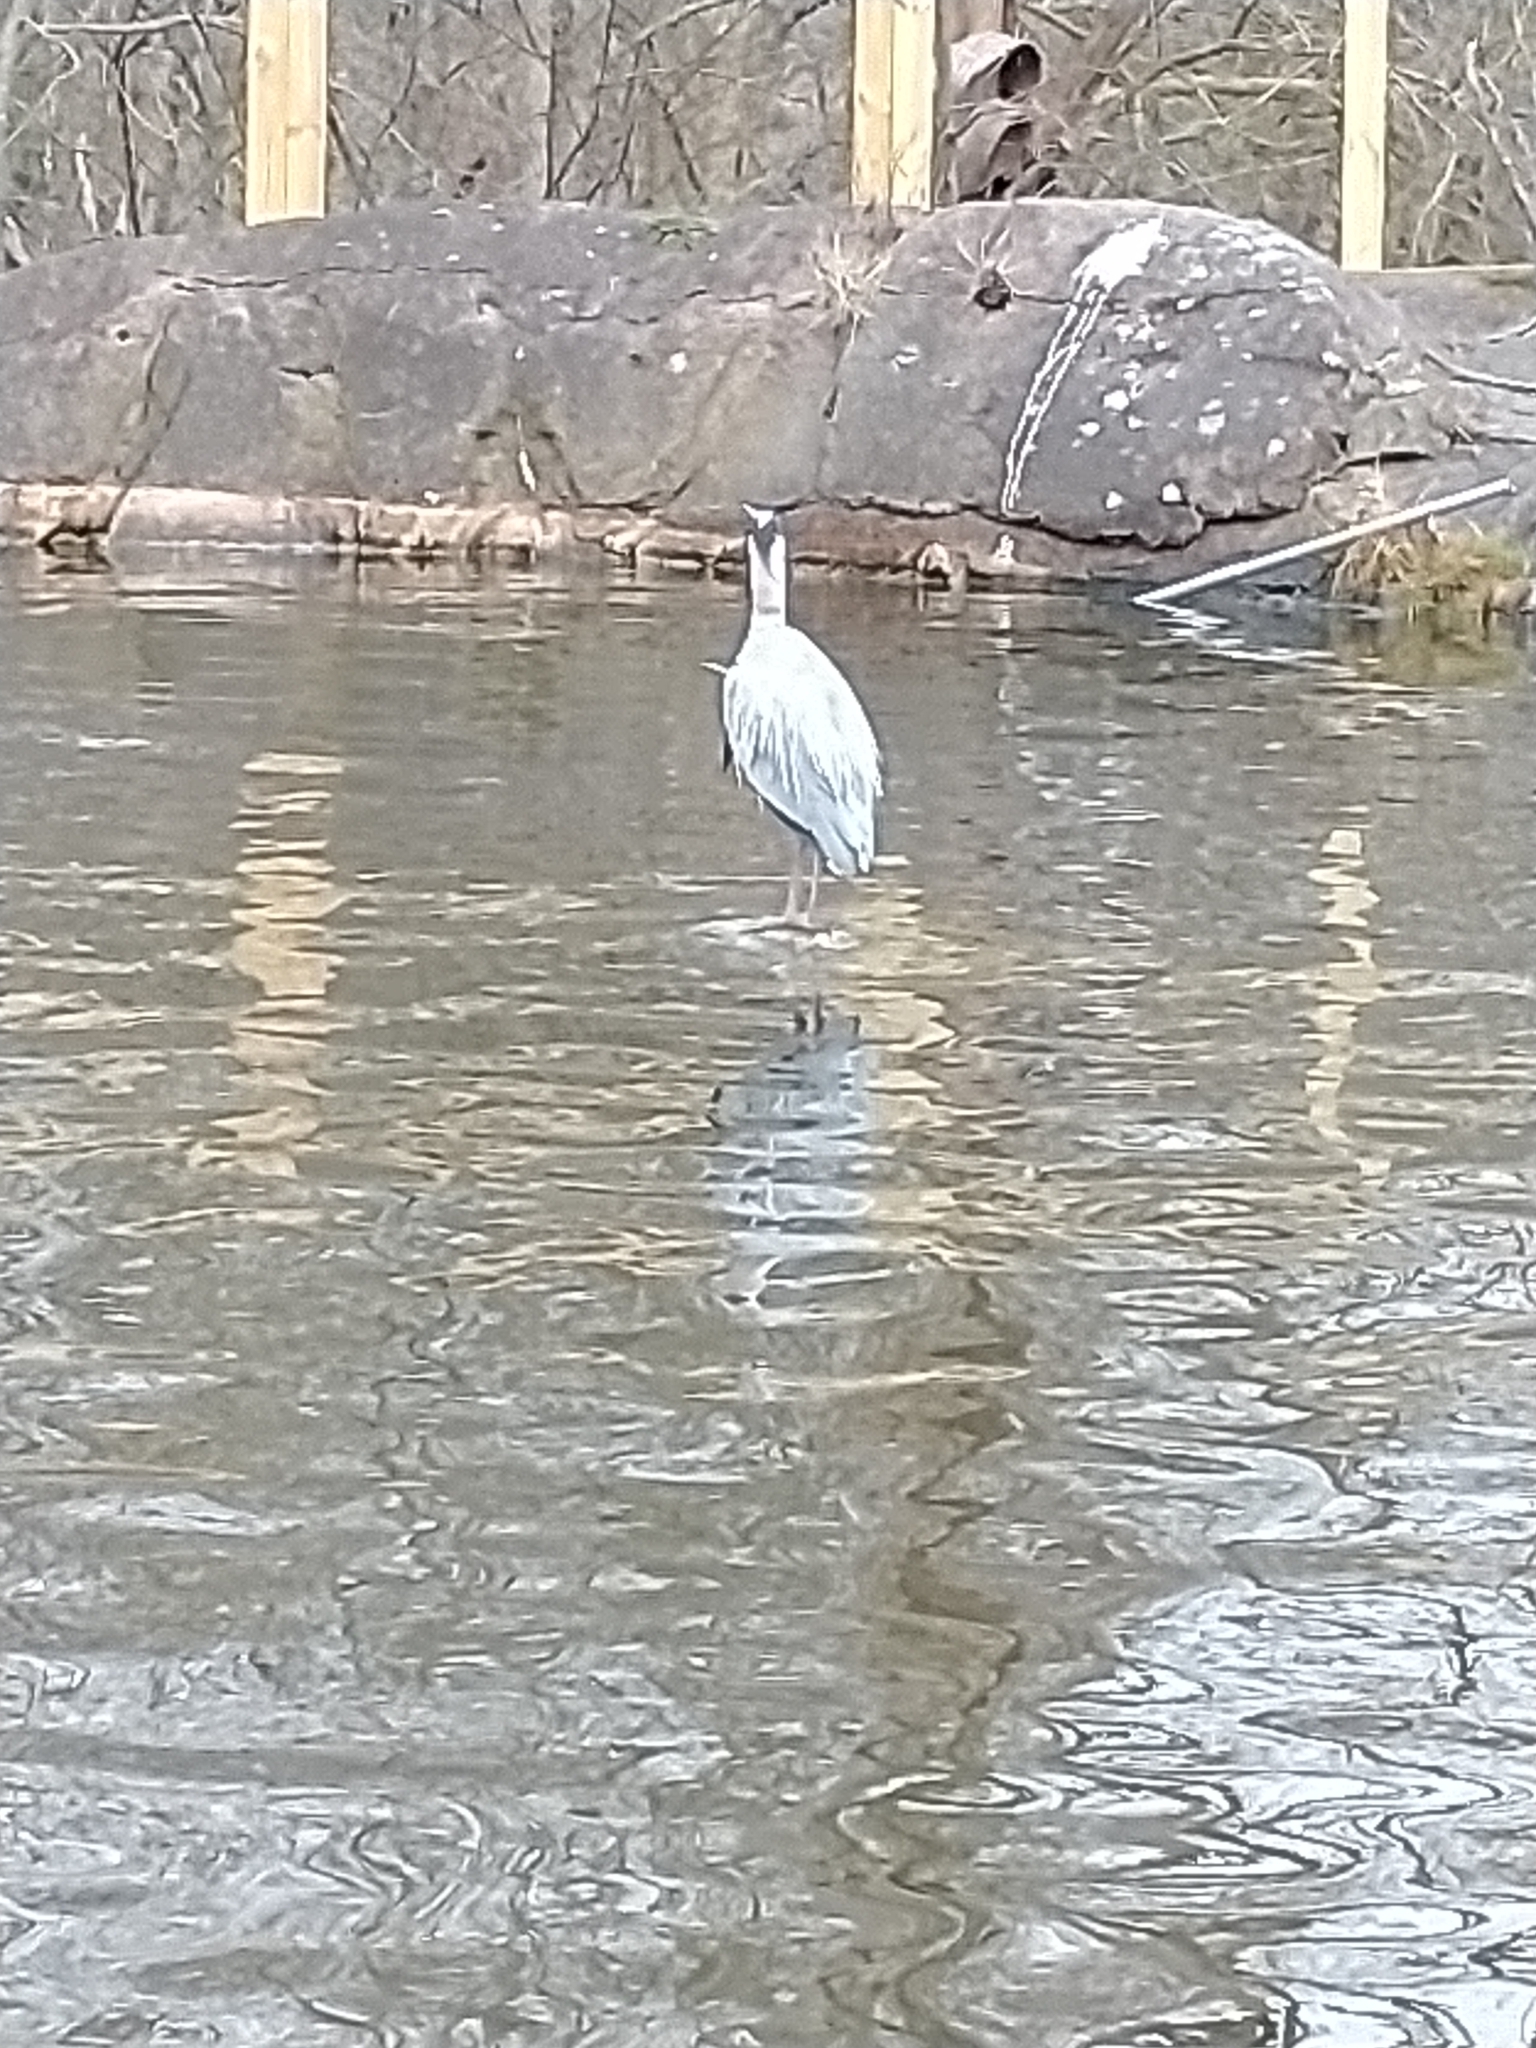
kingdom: Animalia
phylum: Chordata
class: Aves
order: Pelecaniformes
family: Ardeidae
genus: Ardea
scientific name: Ardea cinerea
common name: Grey heron
